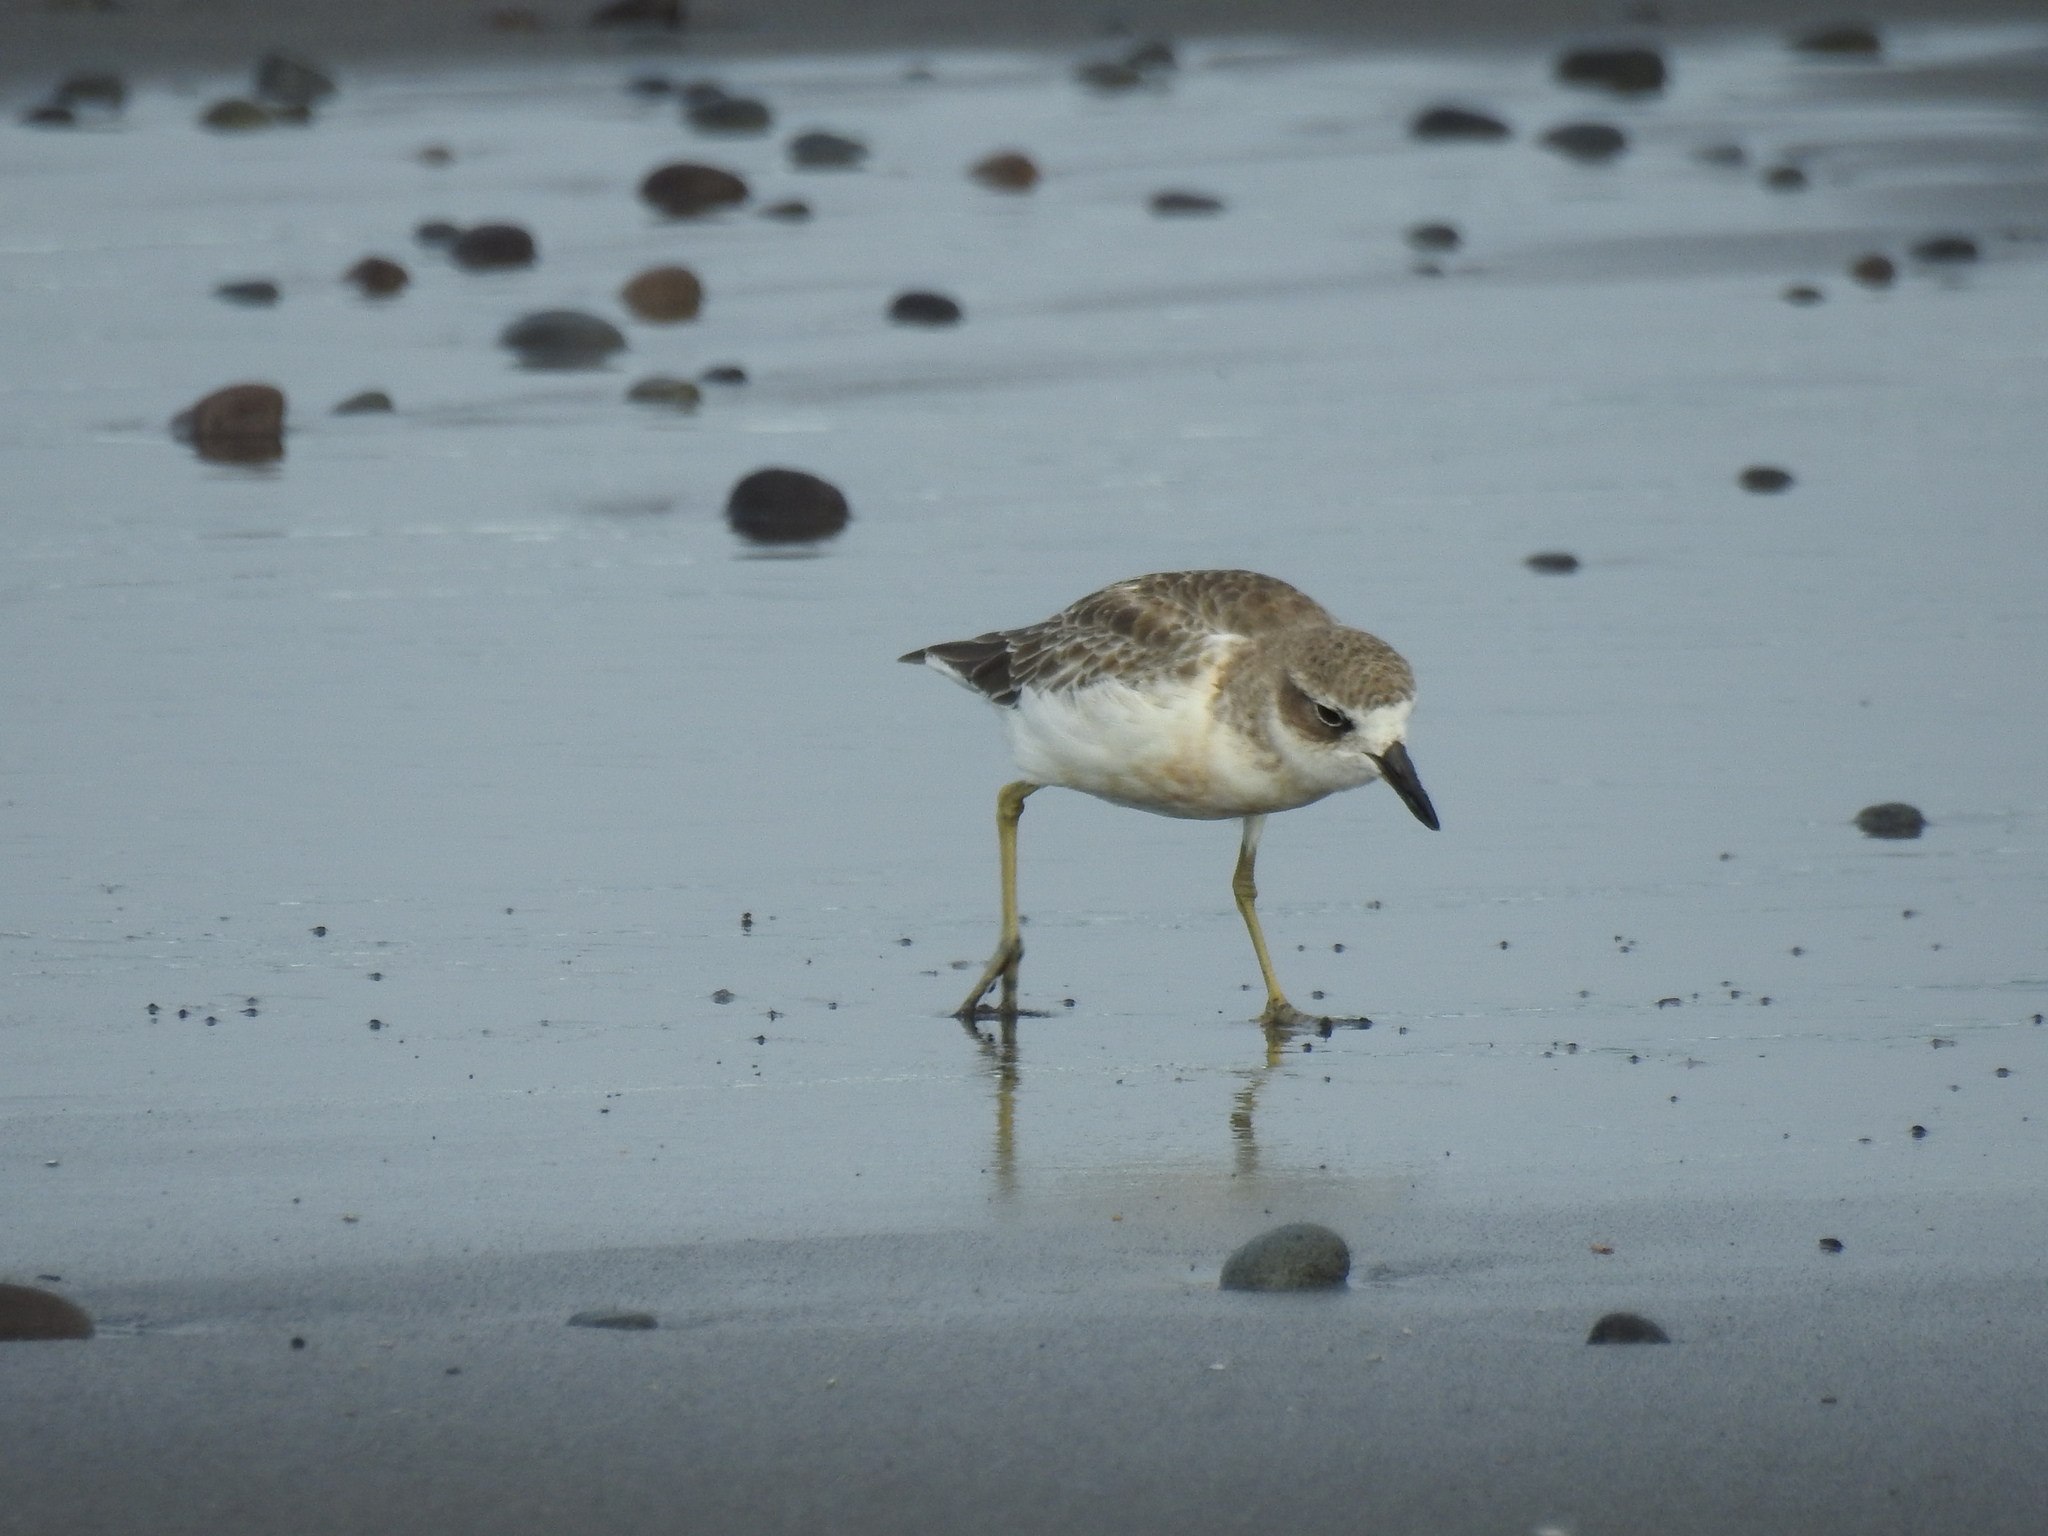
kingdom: Animalia
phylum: Chordata
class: Aves
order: Charadriiformes
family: Charadriidae
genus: Anarhynchus
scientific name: Anarhynchus
